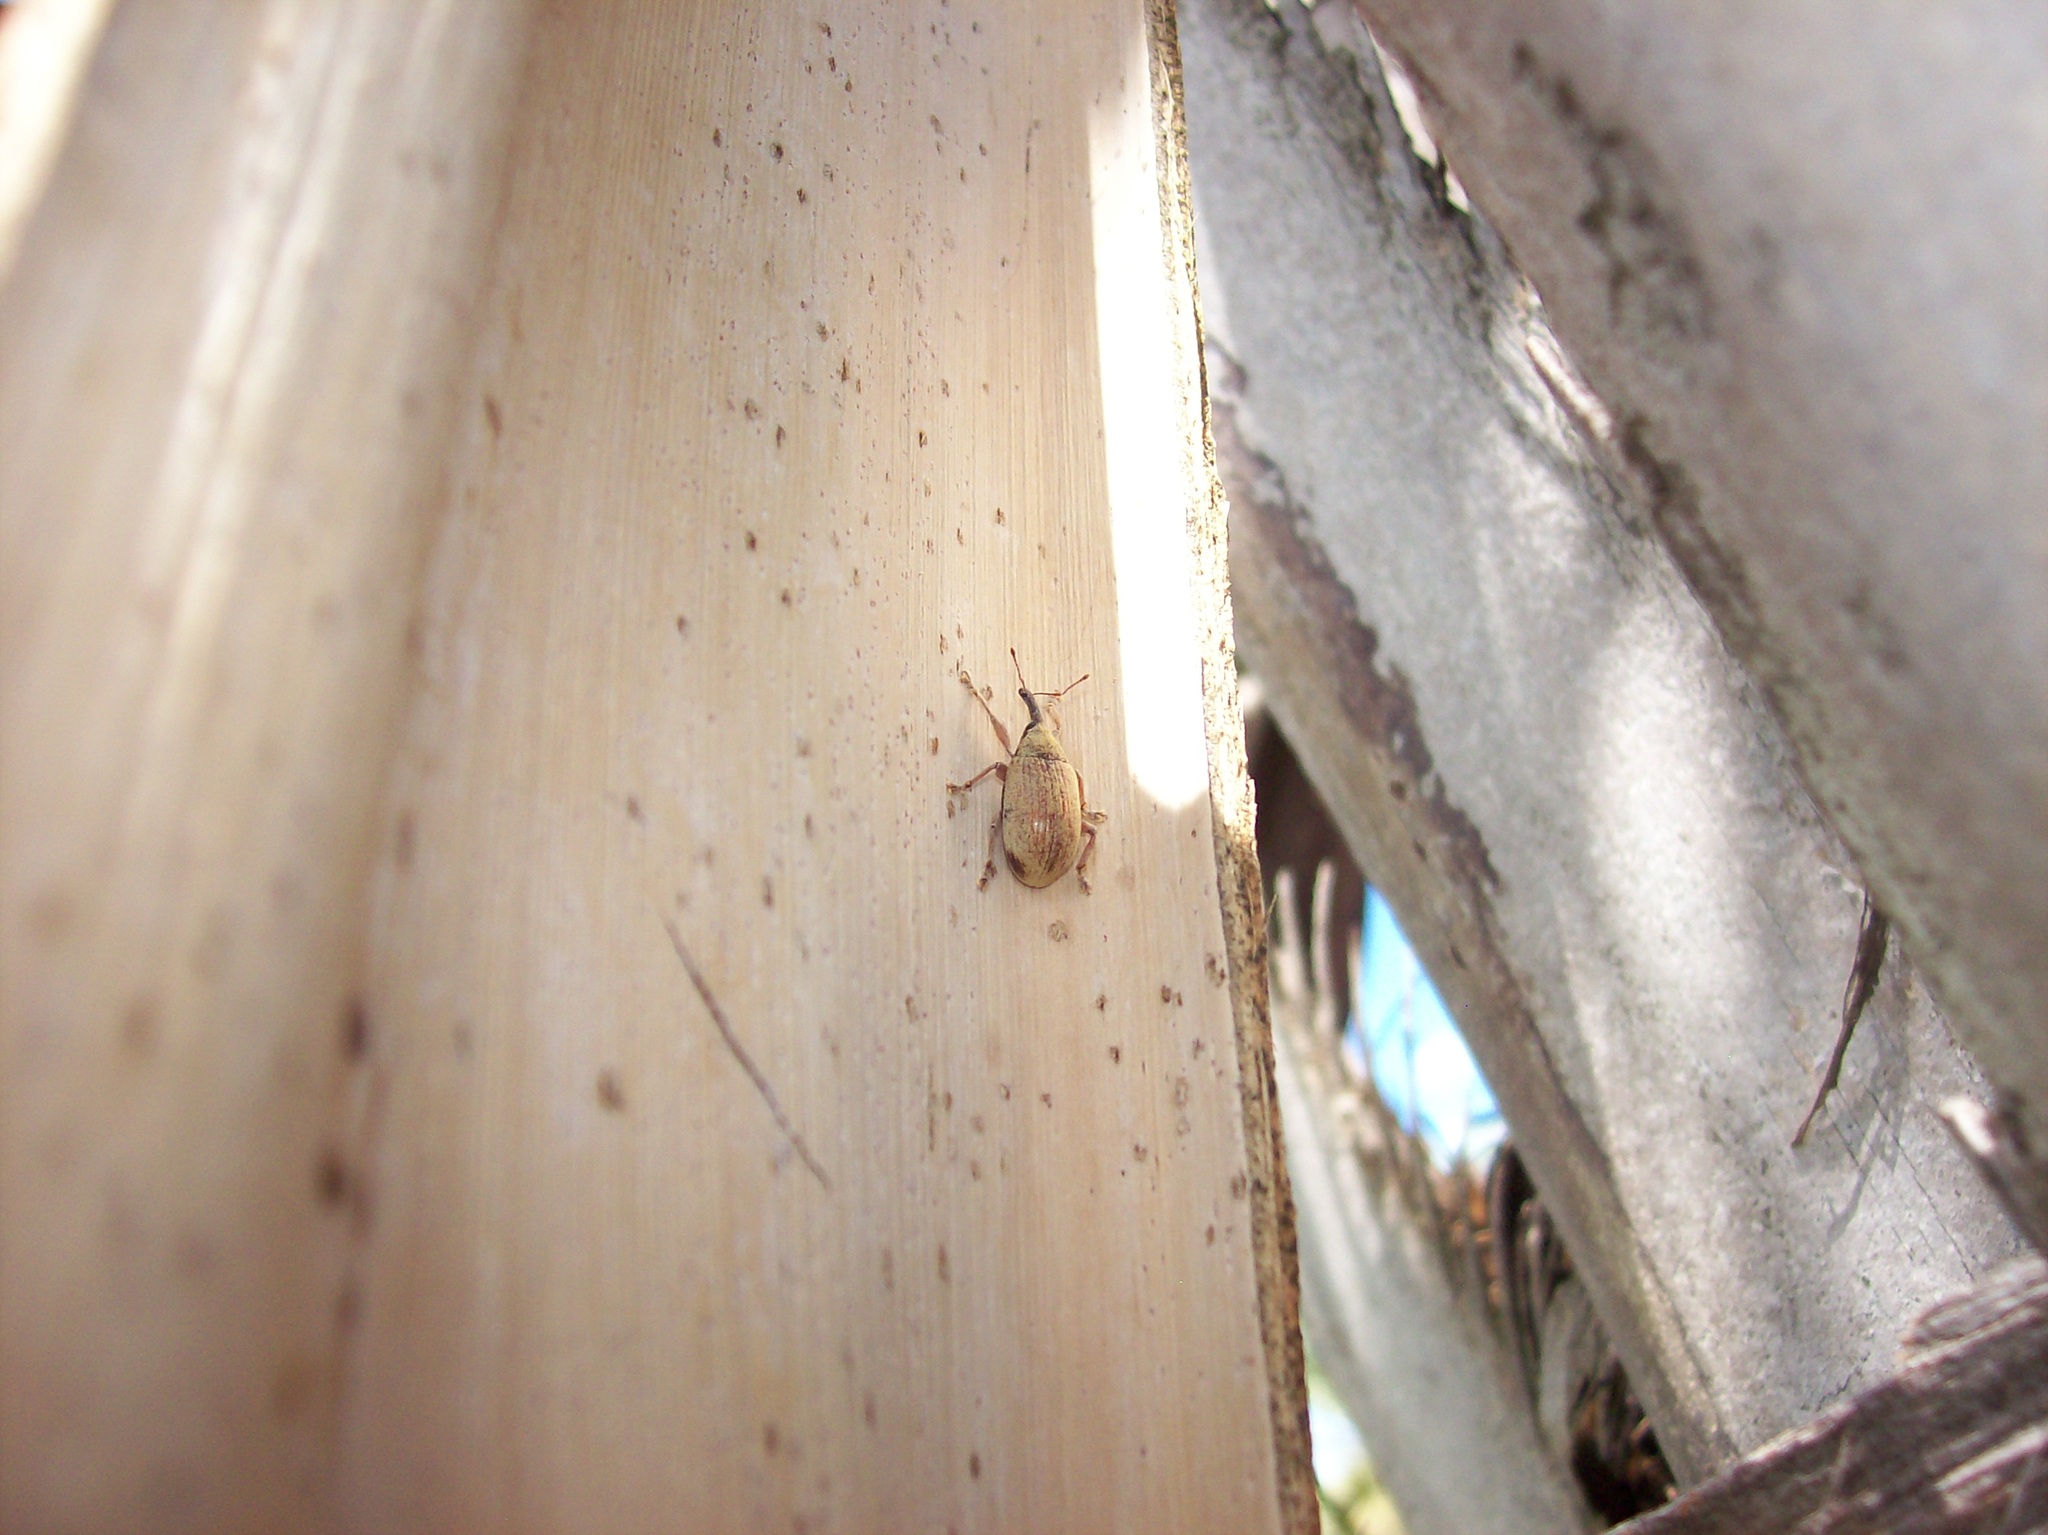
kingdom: Animalia
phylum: Arthropoda
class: Insecta
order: Coleoptera
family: Curculionidae
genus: Anchylorhynchus
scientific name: Anchylorhynchus burmeisteri
